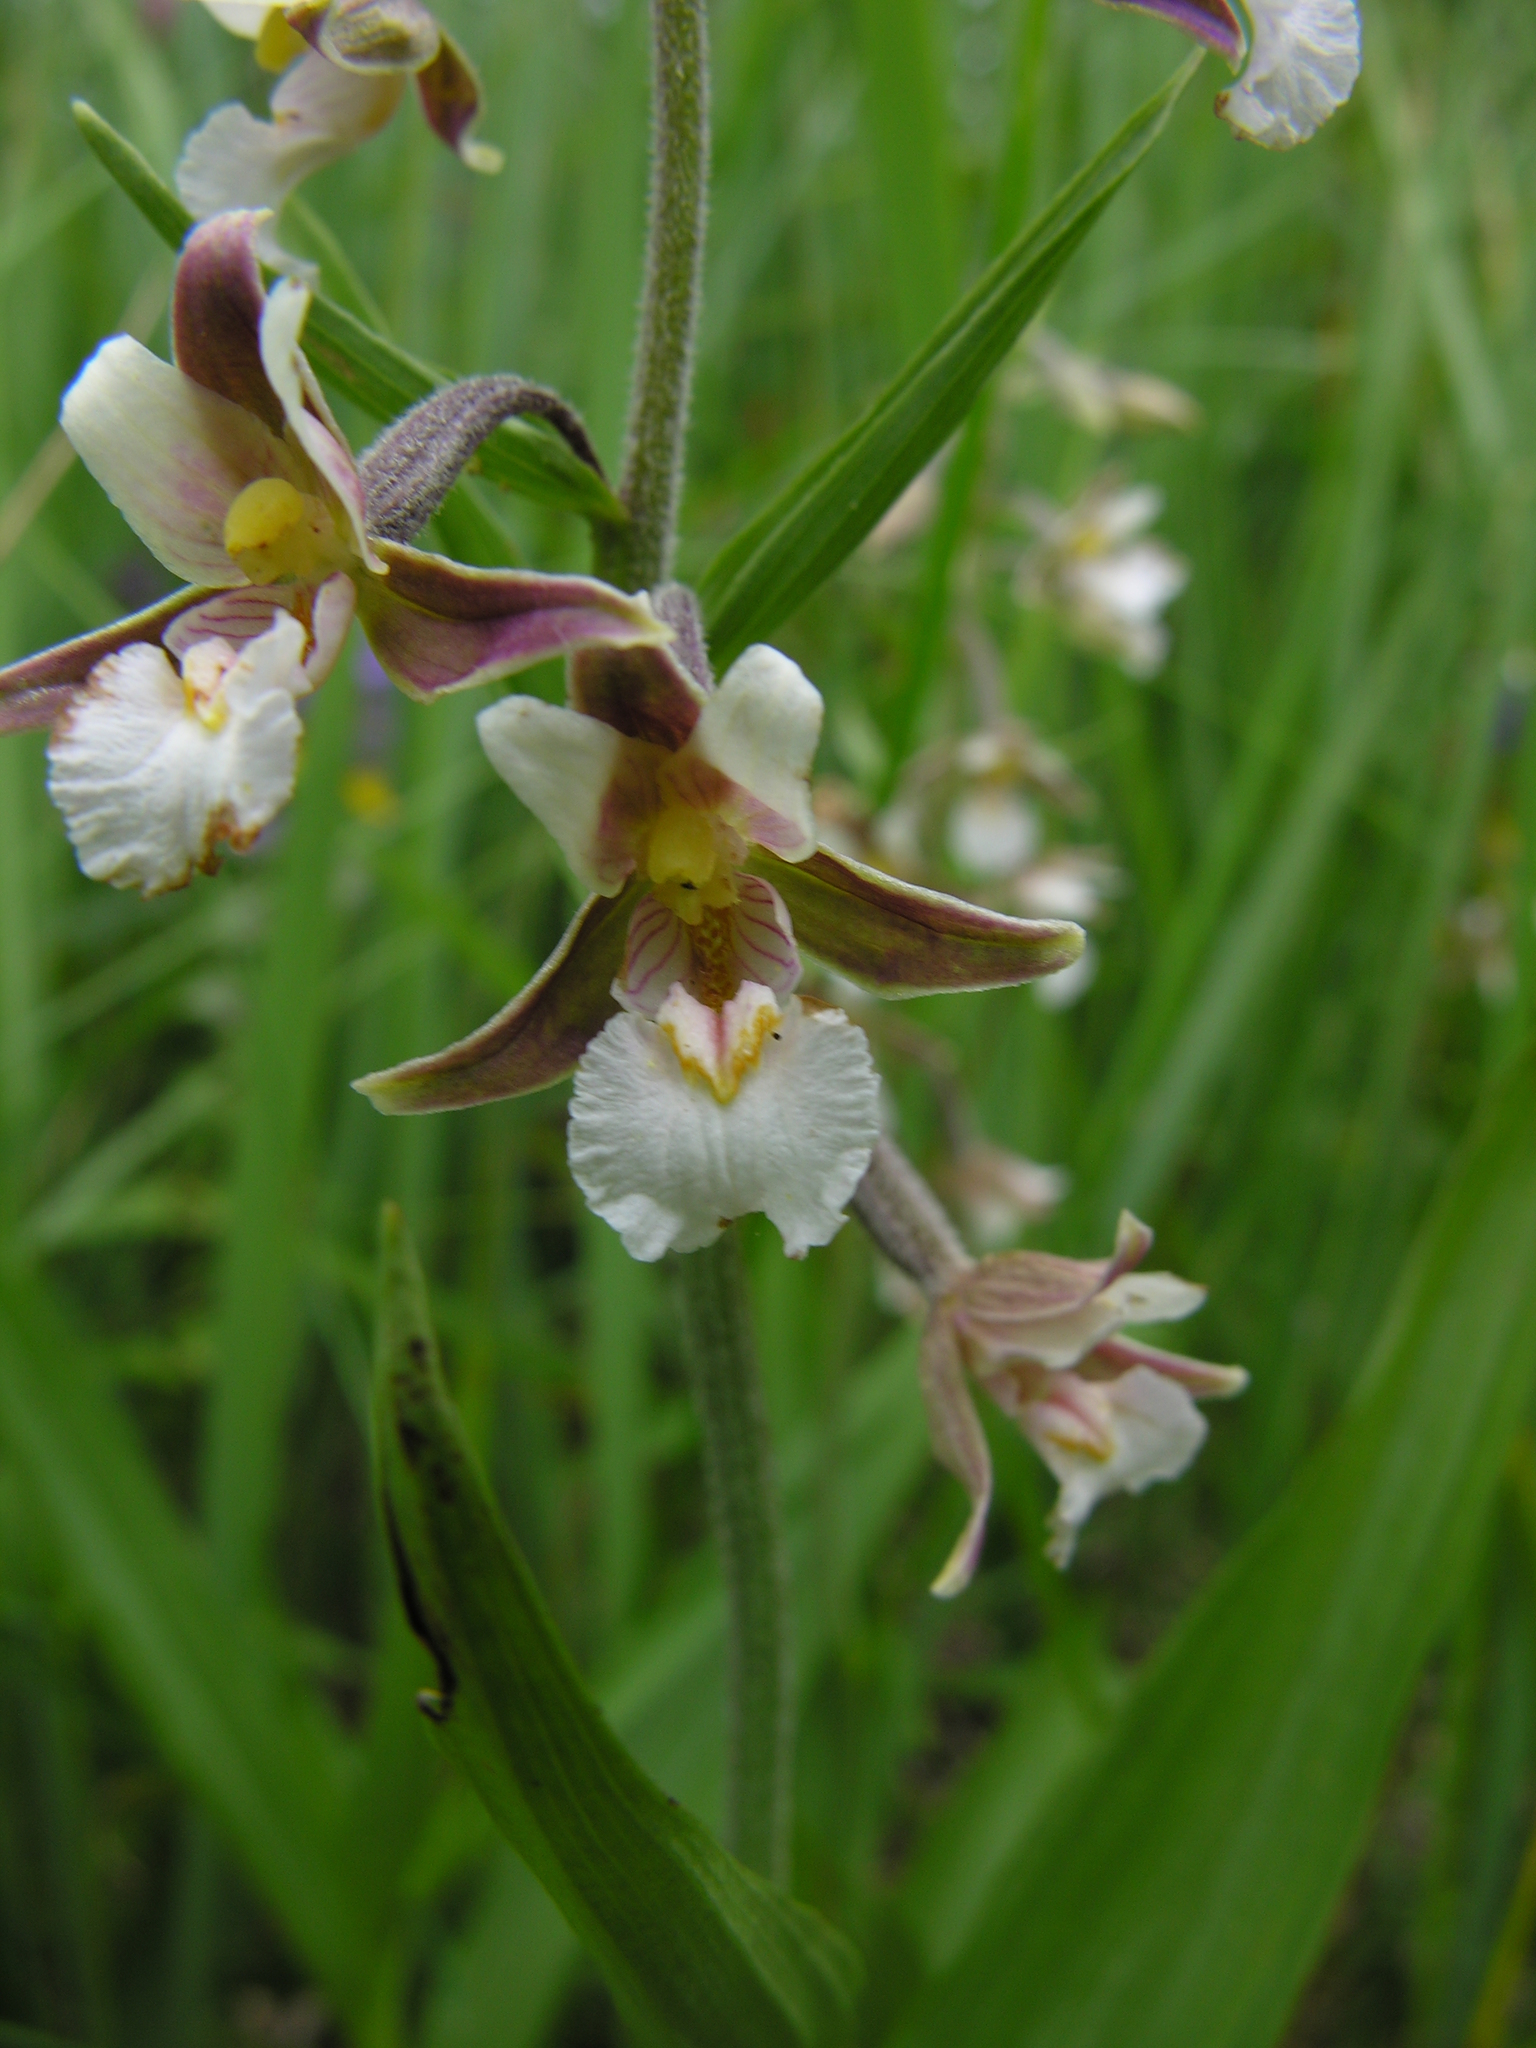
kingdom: Plantae
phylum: Tracheophyta
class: Liliopsida
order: Asparagales
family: Orchidaceae
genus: Epipactis
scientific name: Epipactis palustris
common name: Marsh helleborine
